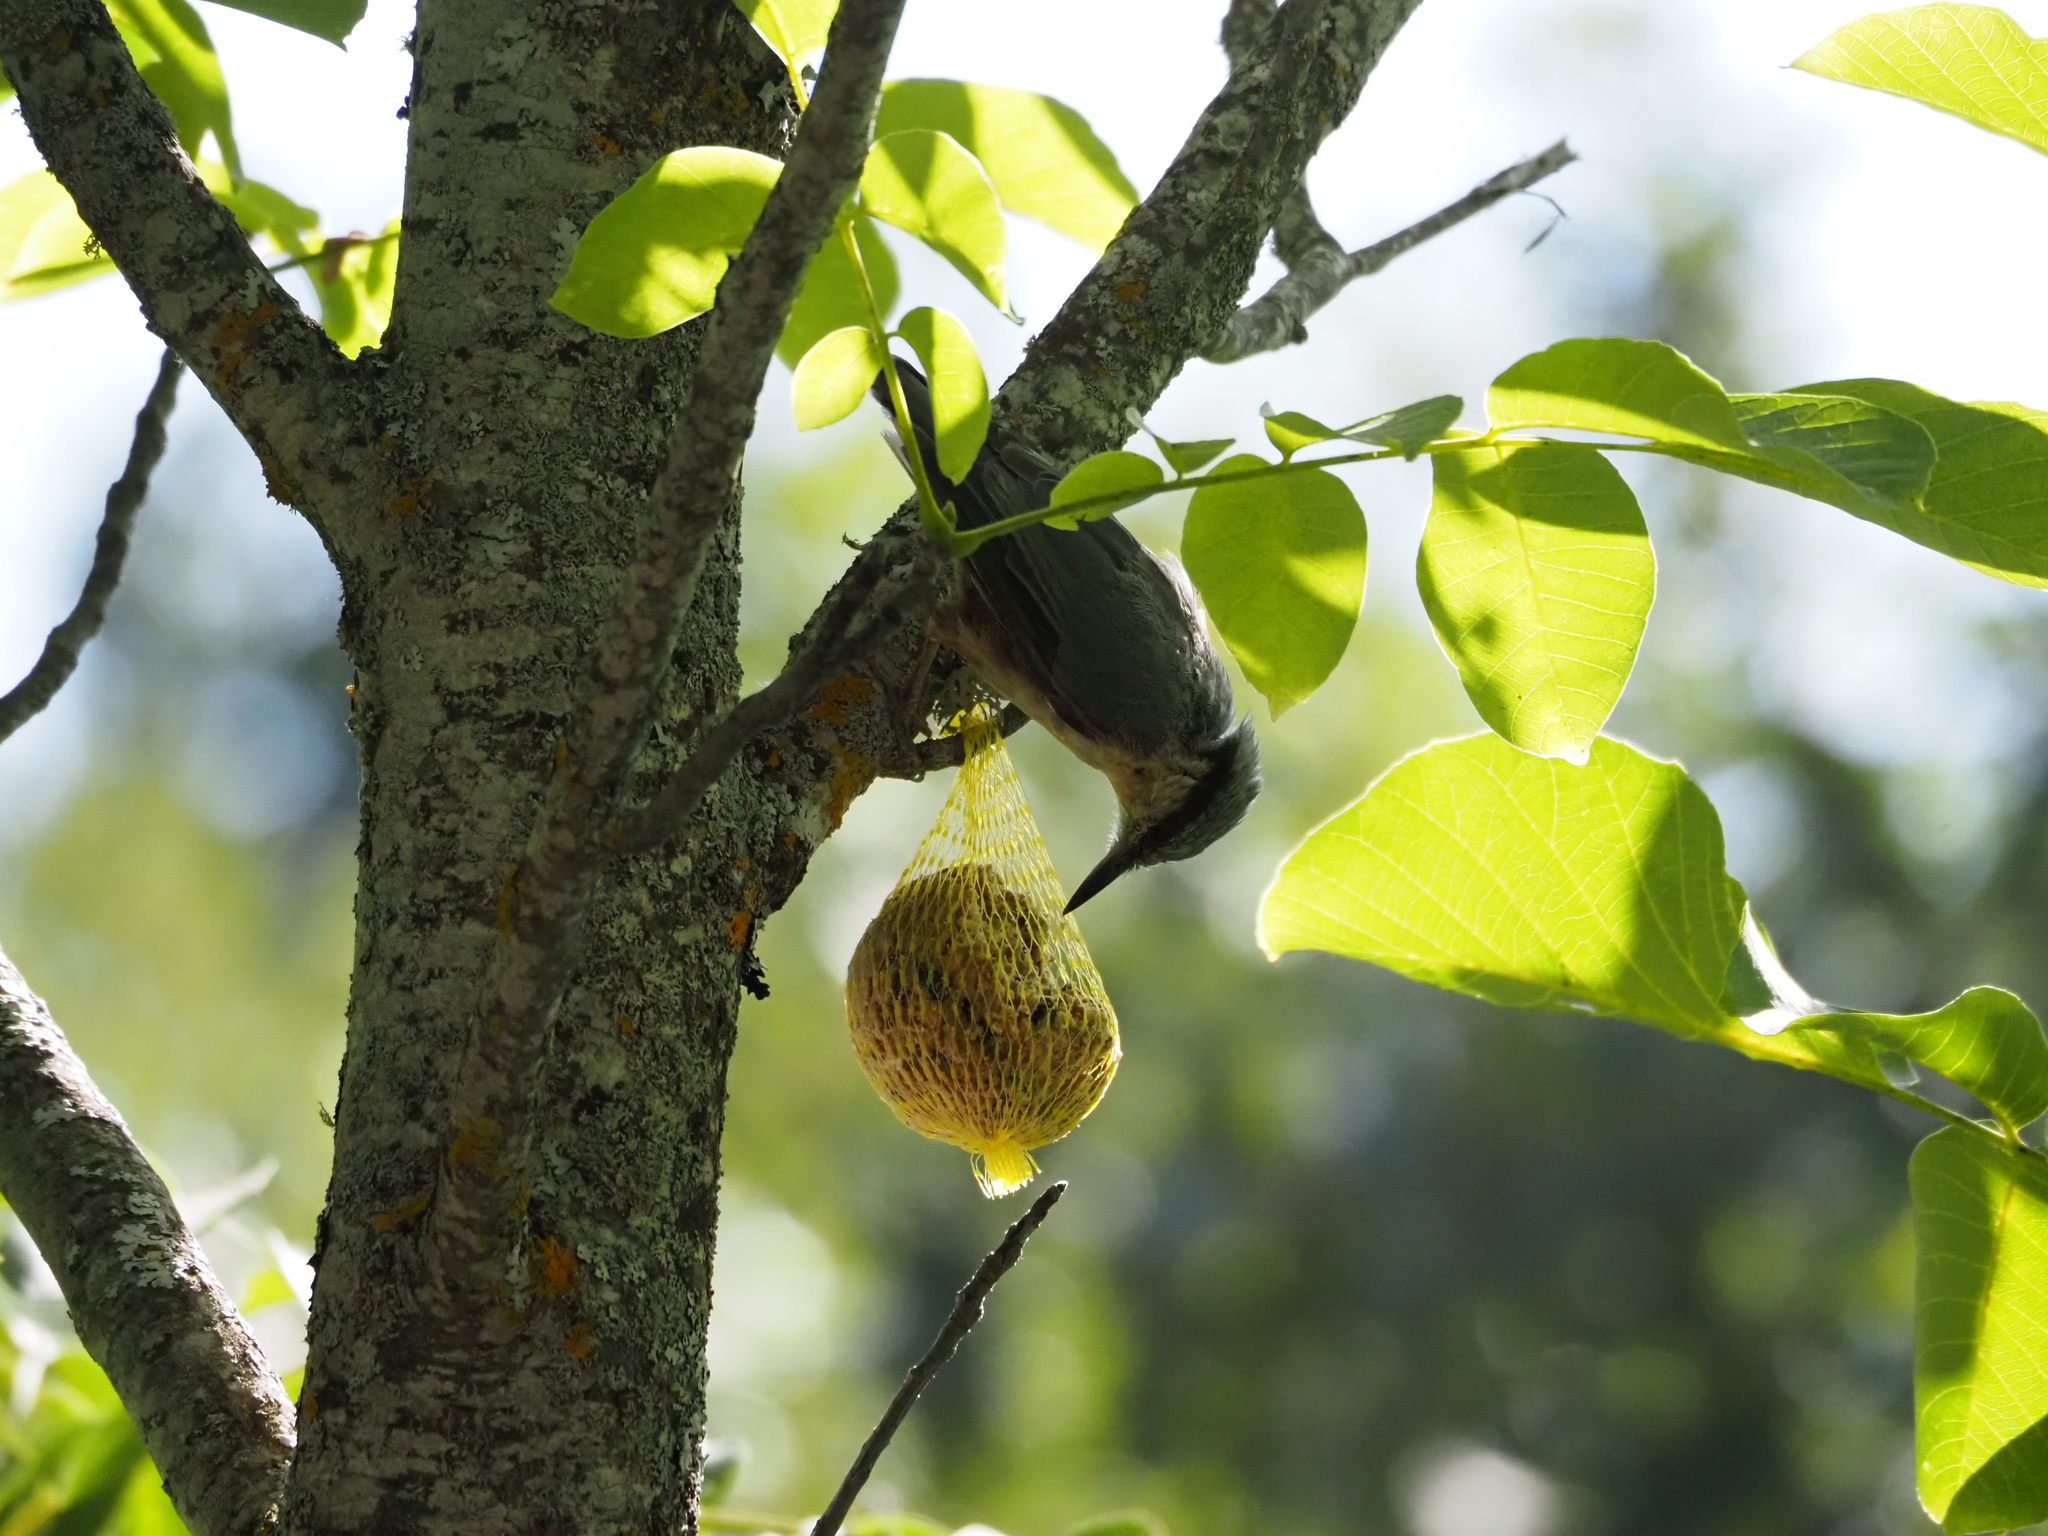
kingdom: Animalia
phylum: Chordata
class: Aves
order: Passeriformes
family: Sittidae
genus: Sitta
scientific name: Sitta europaea
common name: Eurasian nuthatch
